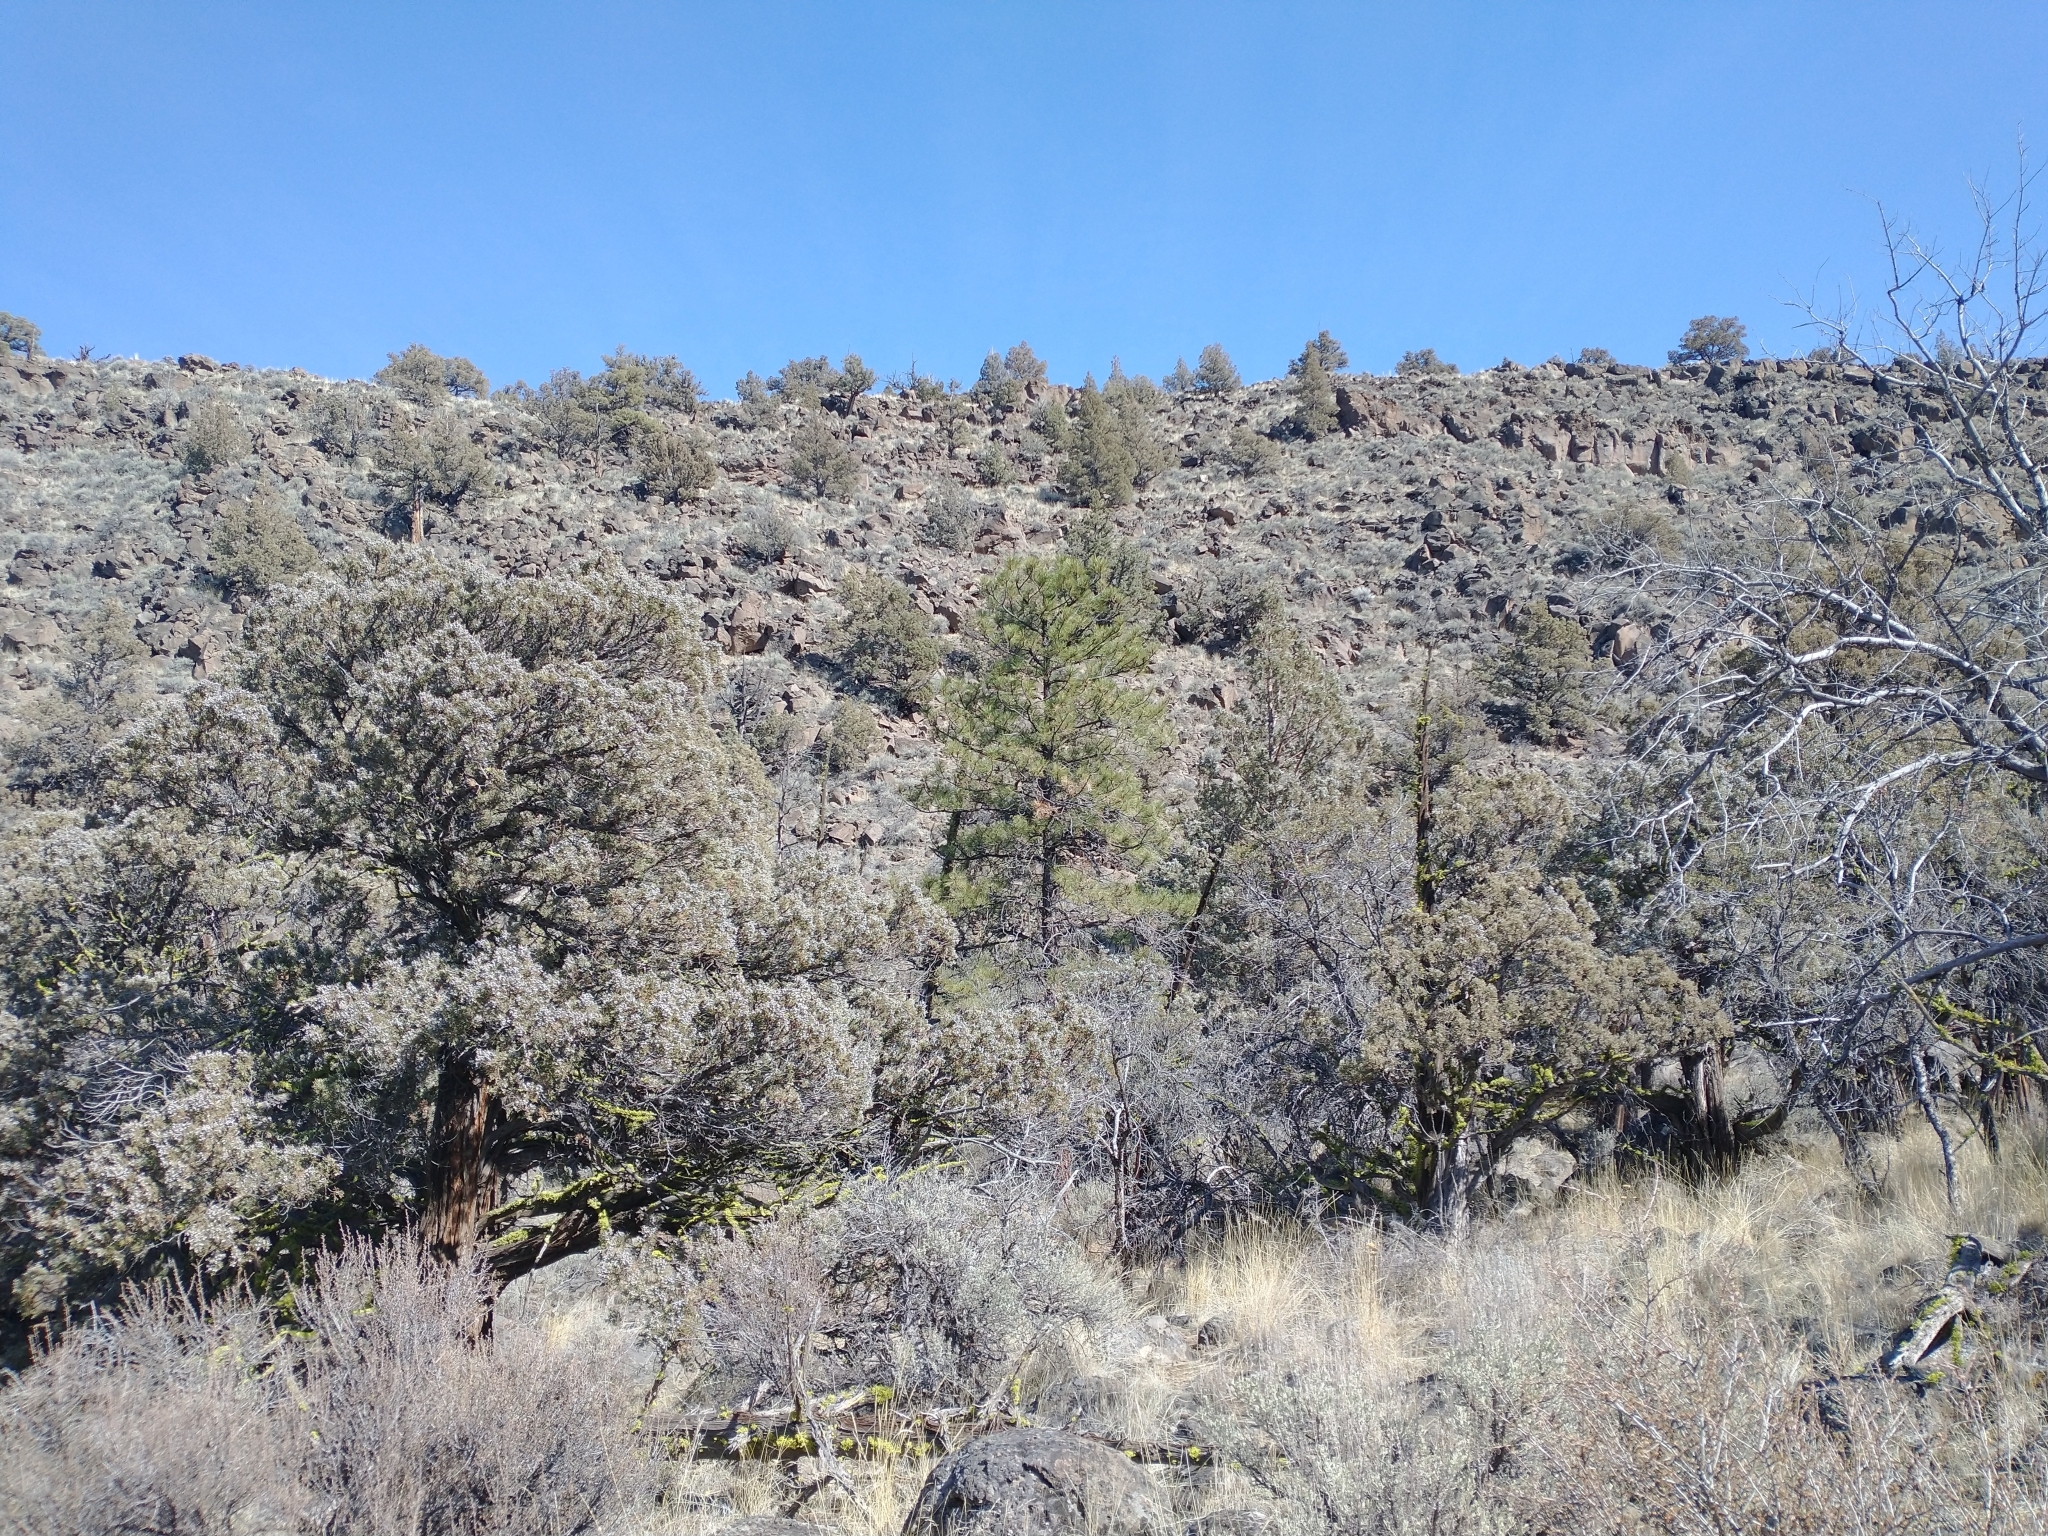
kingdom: Plantae
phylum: Tracheophyta
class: Pinopsida
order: Pinales
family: Pinaceae
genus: Pinus
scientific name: Pinus ponderosa
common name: Western yellow-pine
